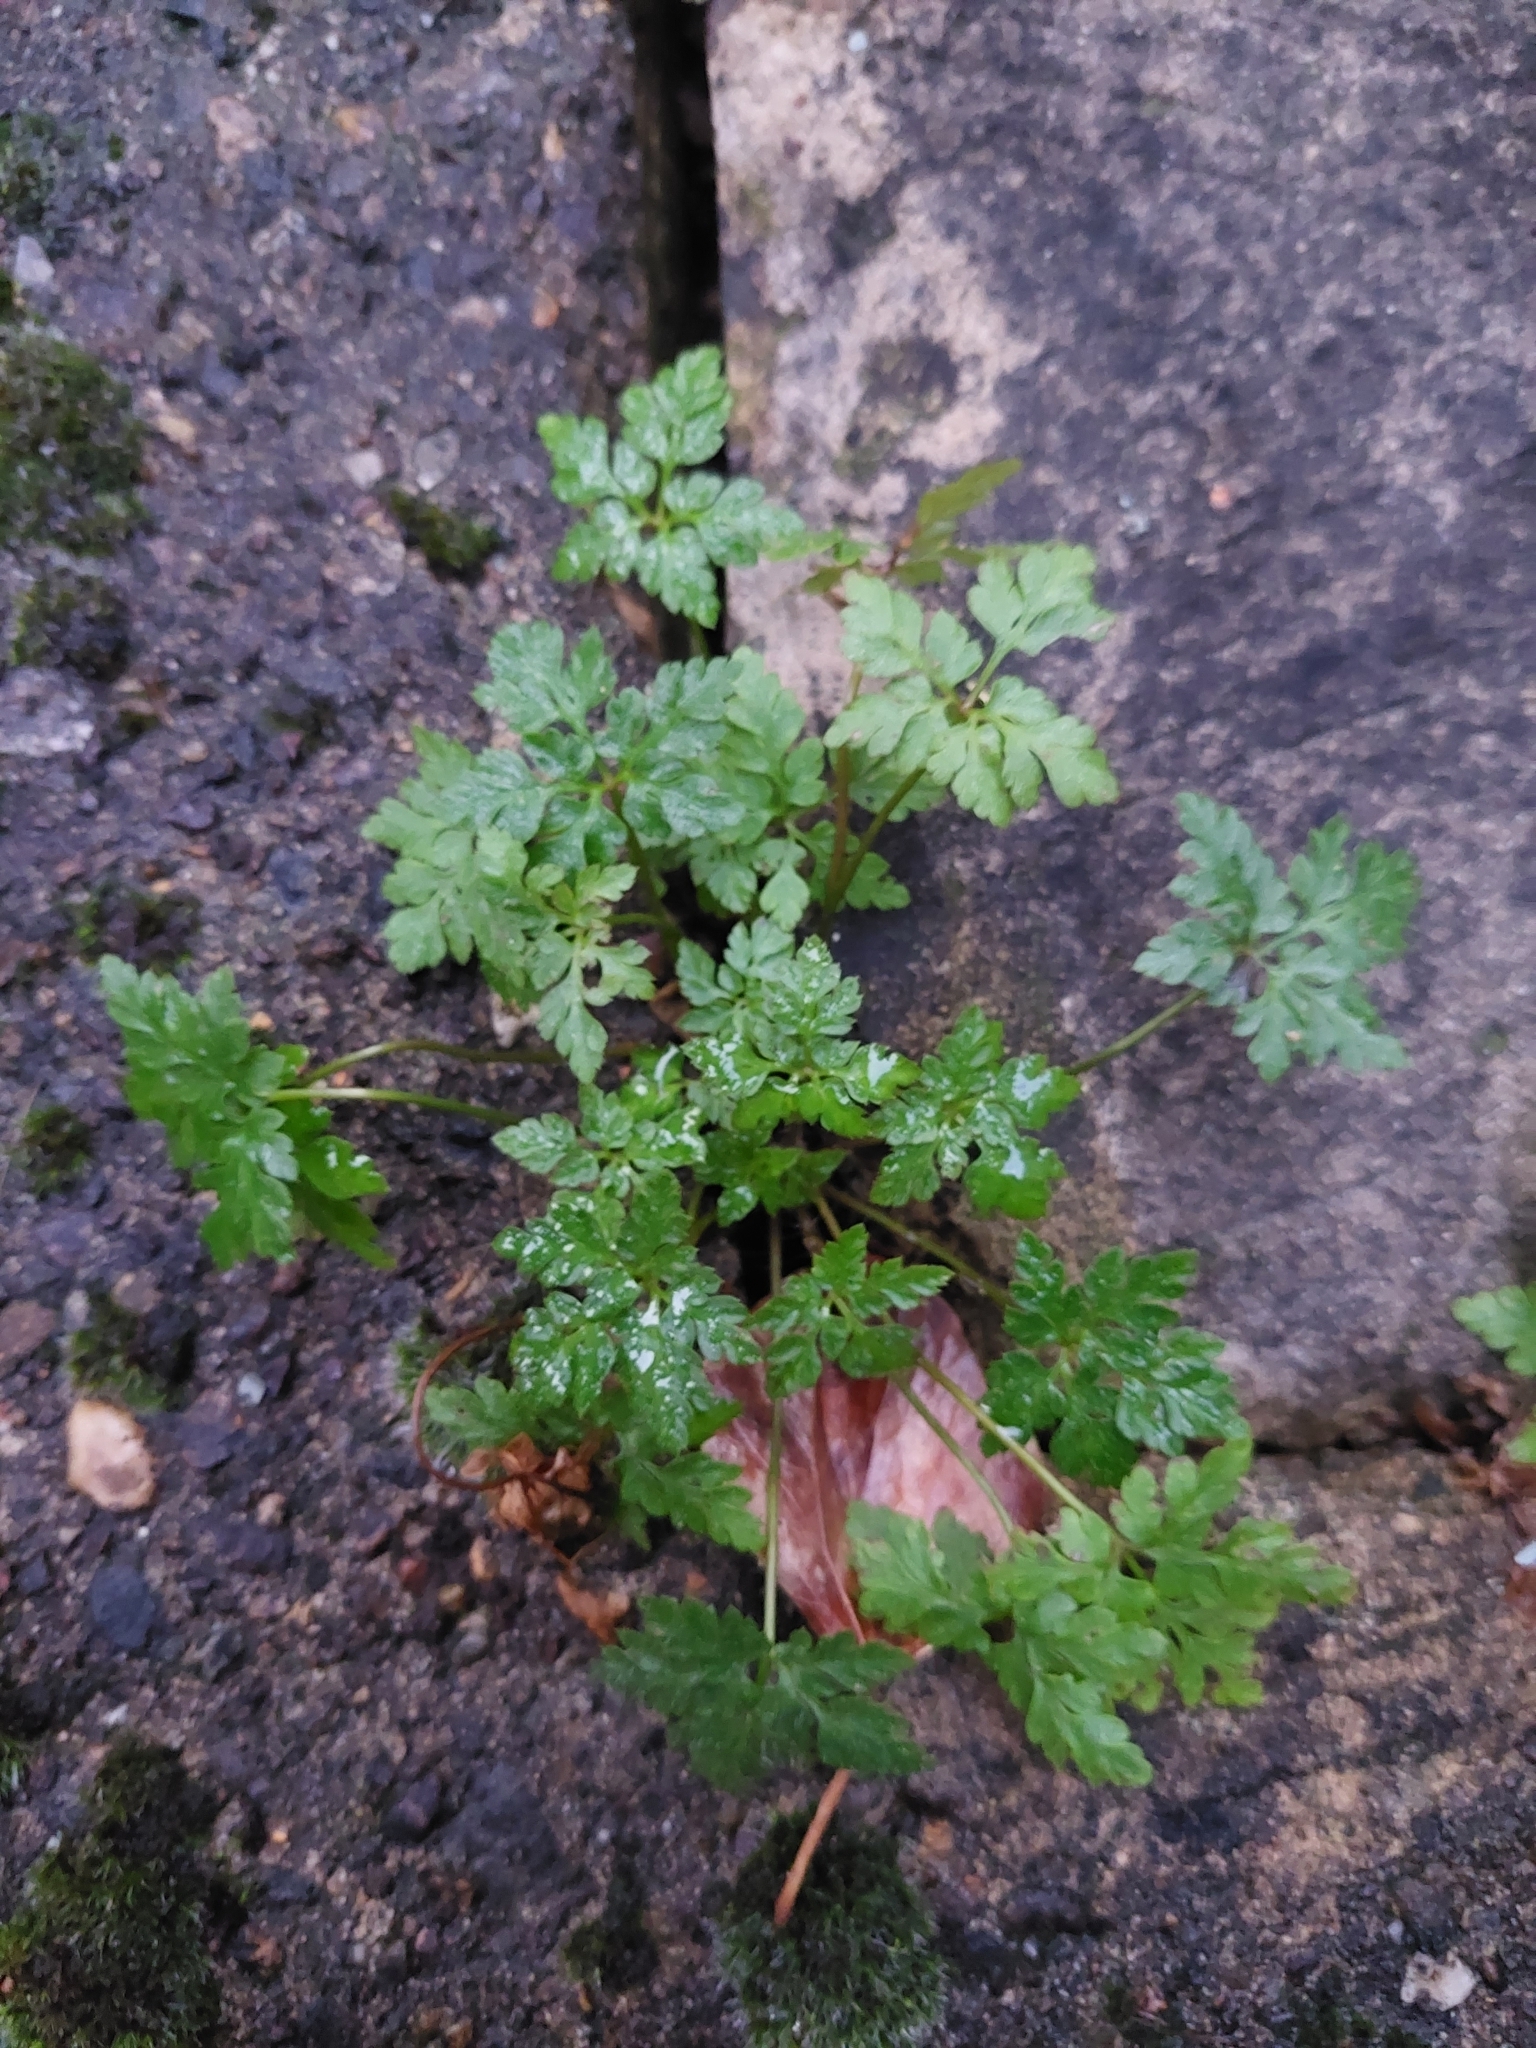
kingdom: Plantae
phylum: Tracheophyta
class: Magnoliopsida
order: Geraniales
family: Geraniaceae
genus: Geranium
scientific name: Geranium robertianum
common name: Herb-robert
